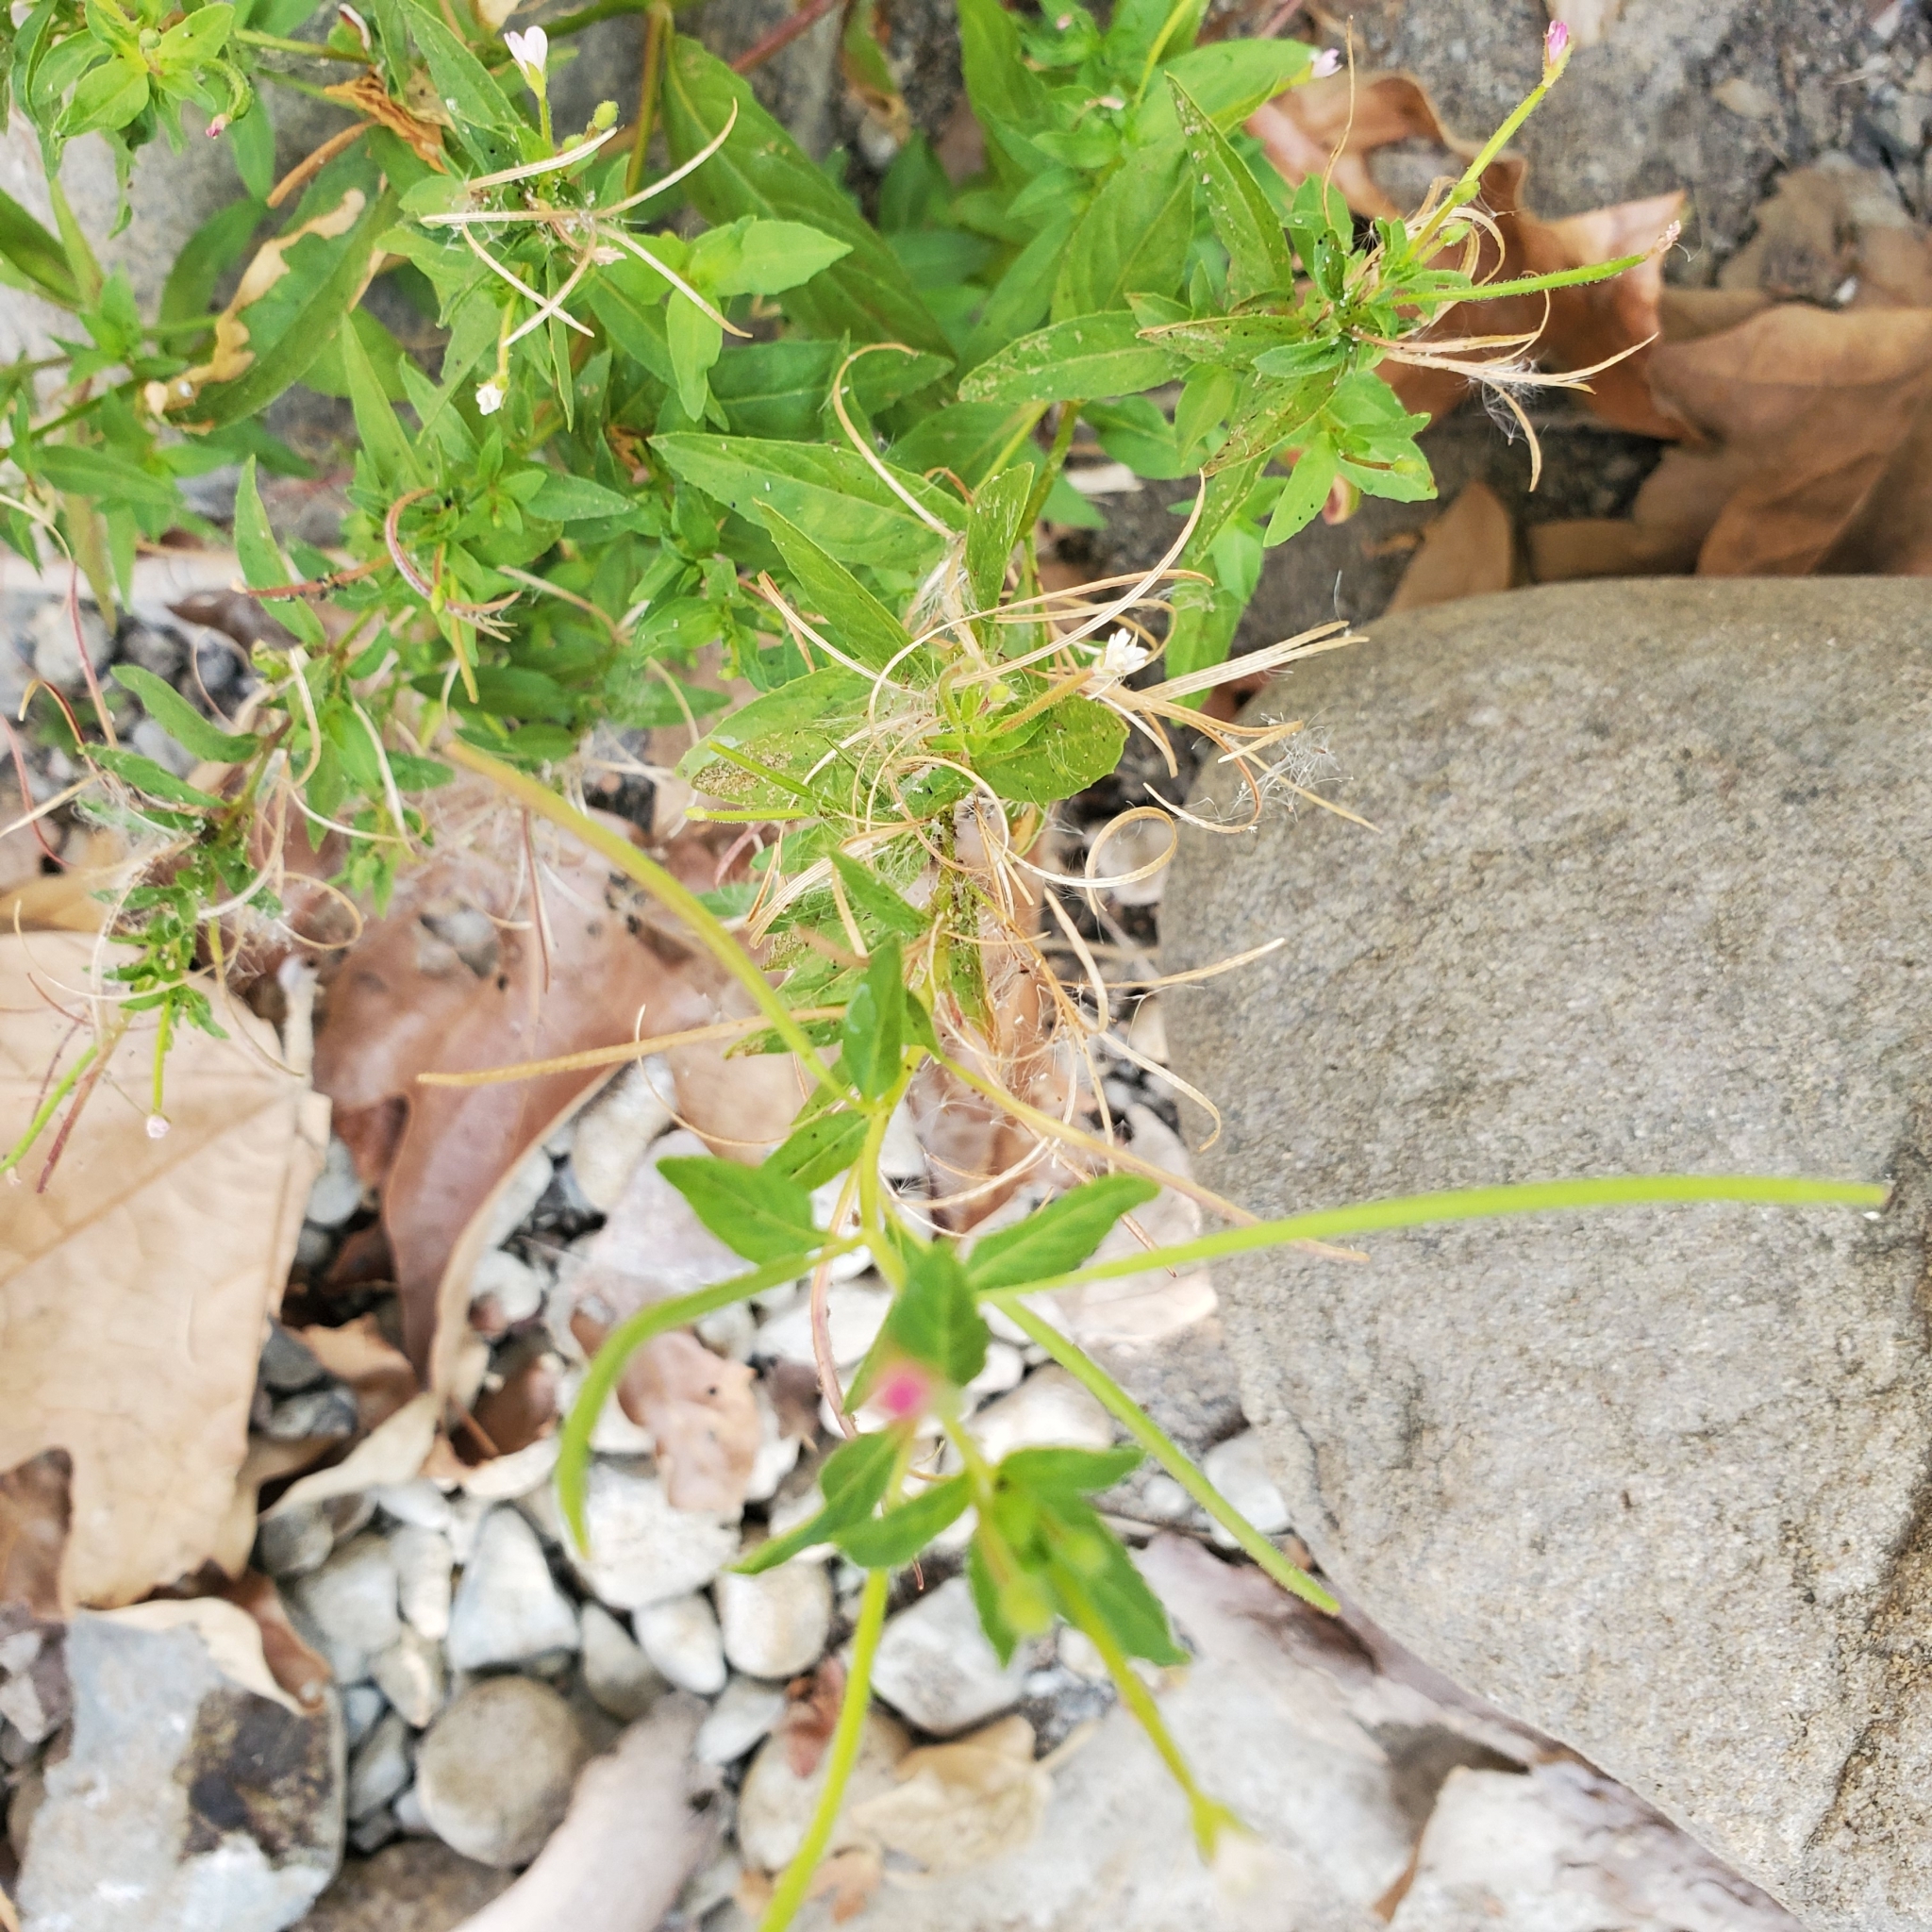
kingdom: Plantae
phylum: Tracheophyta
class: Magnoliopsida
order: Myrtales
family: Onagraceae
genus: Epilobium
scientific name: Epilobium ciliatum
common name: American willowherb
